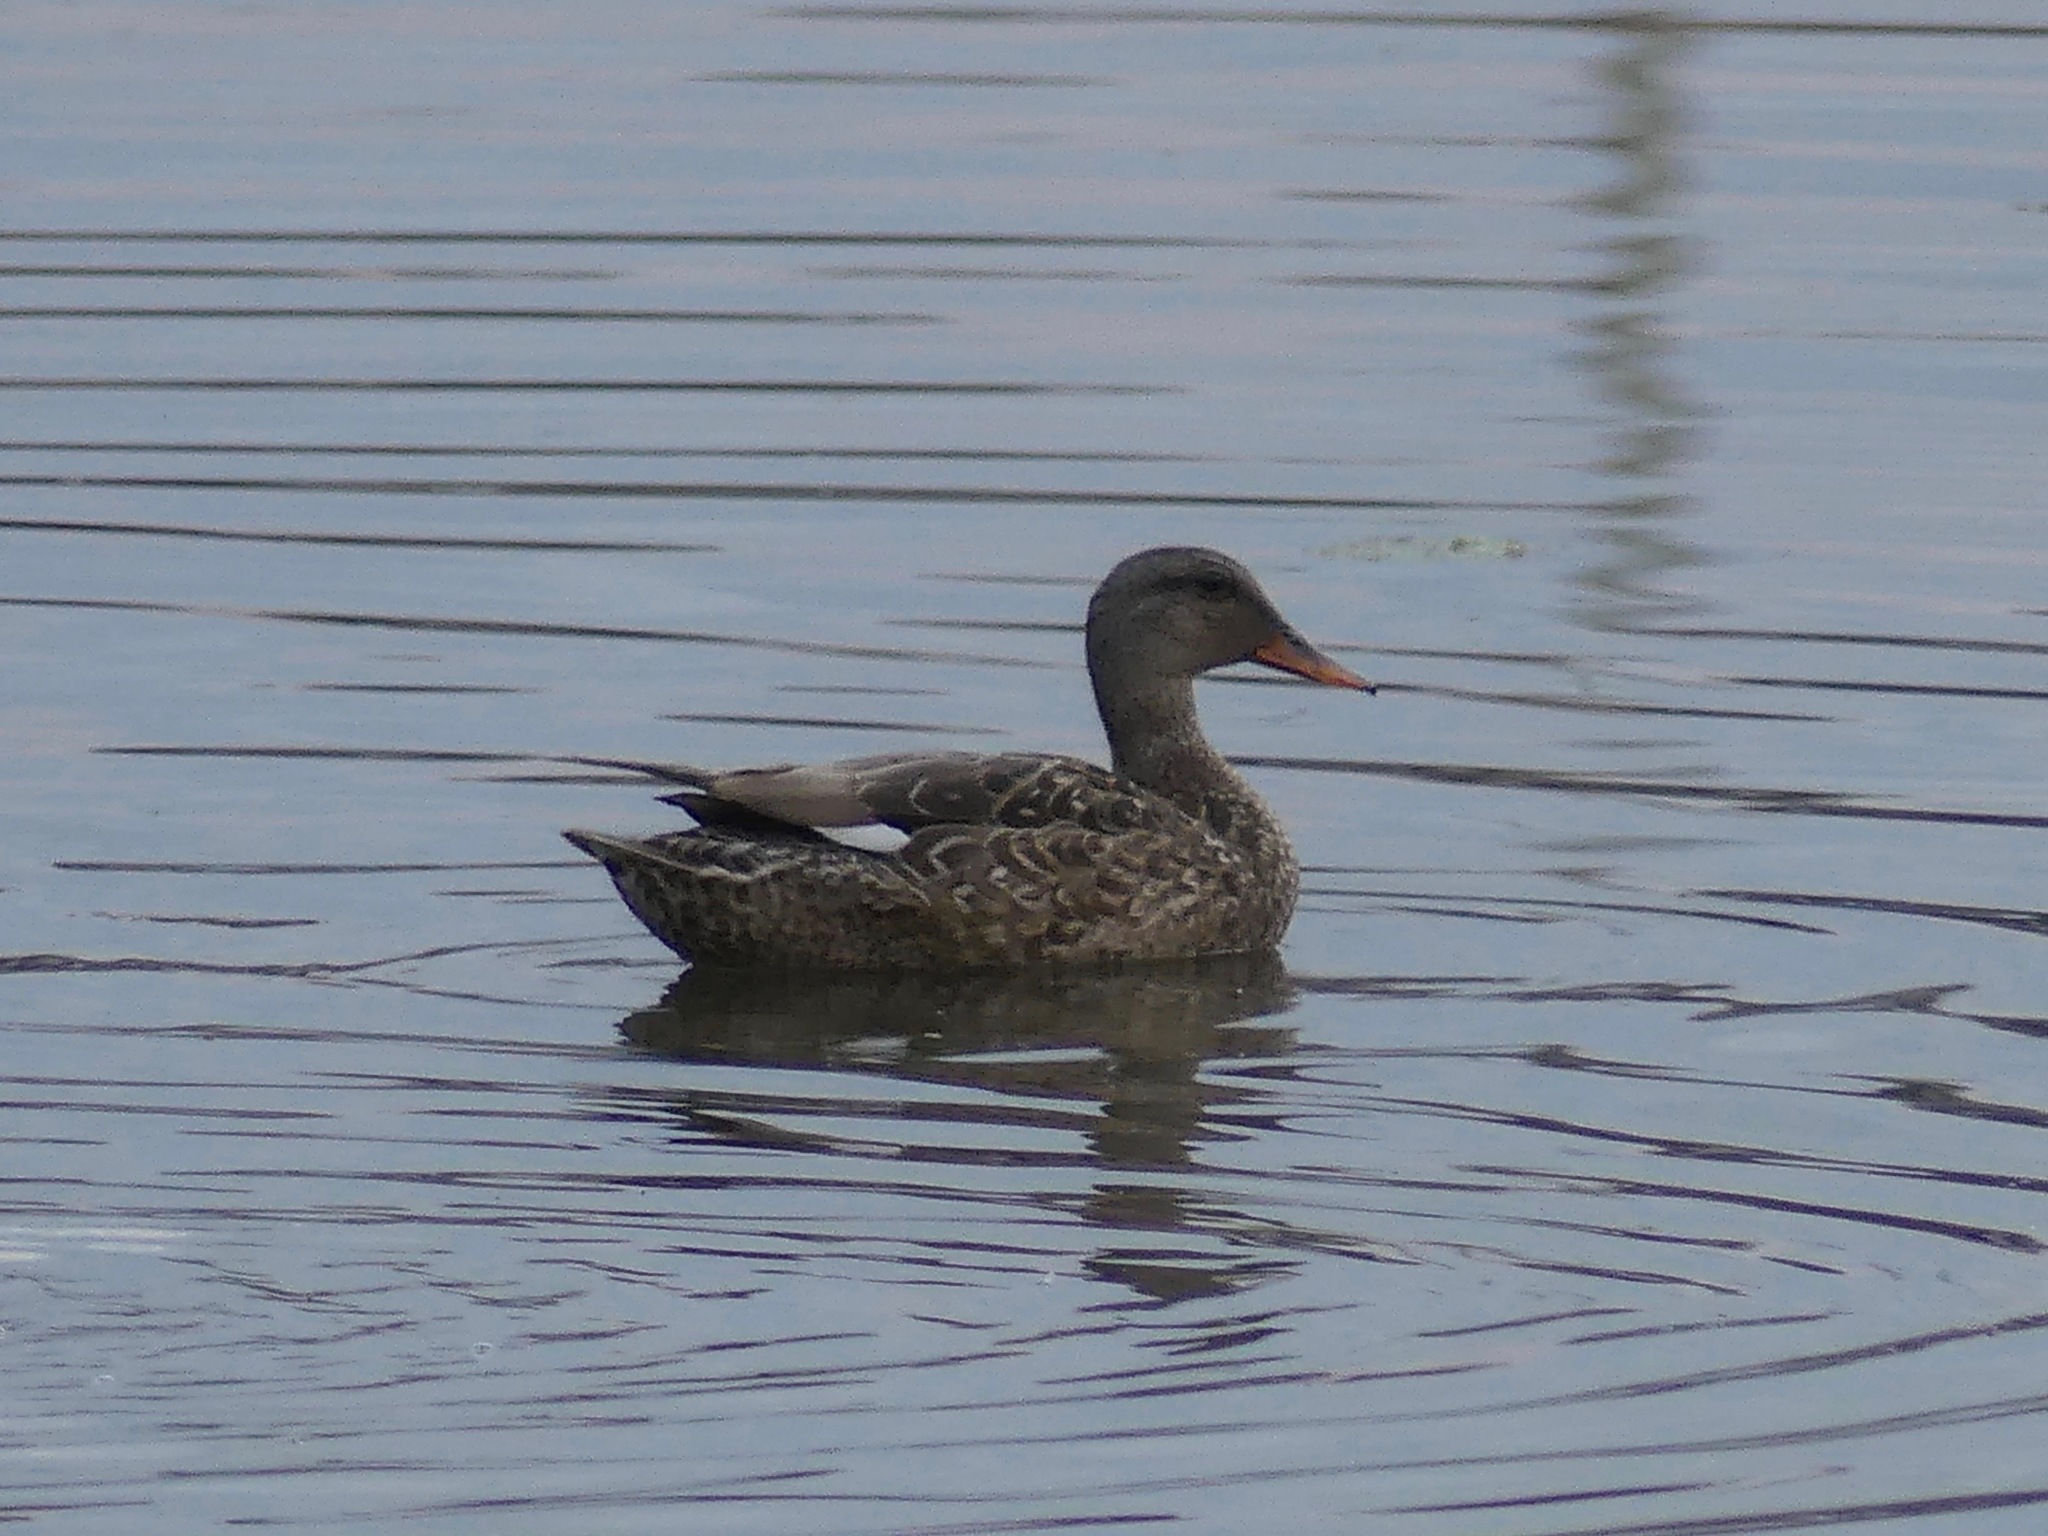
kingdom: Animalia
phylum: Chordata
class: Aves
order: Anseriformes
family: Anatidae
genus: Mareca
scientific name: Mareca strepera
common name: Gadwall
